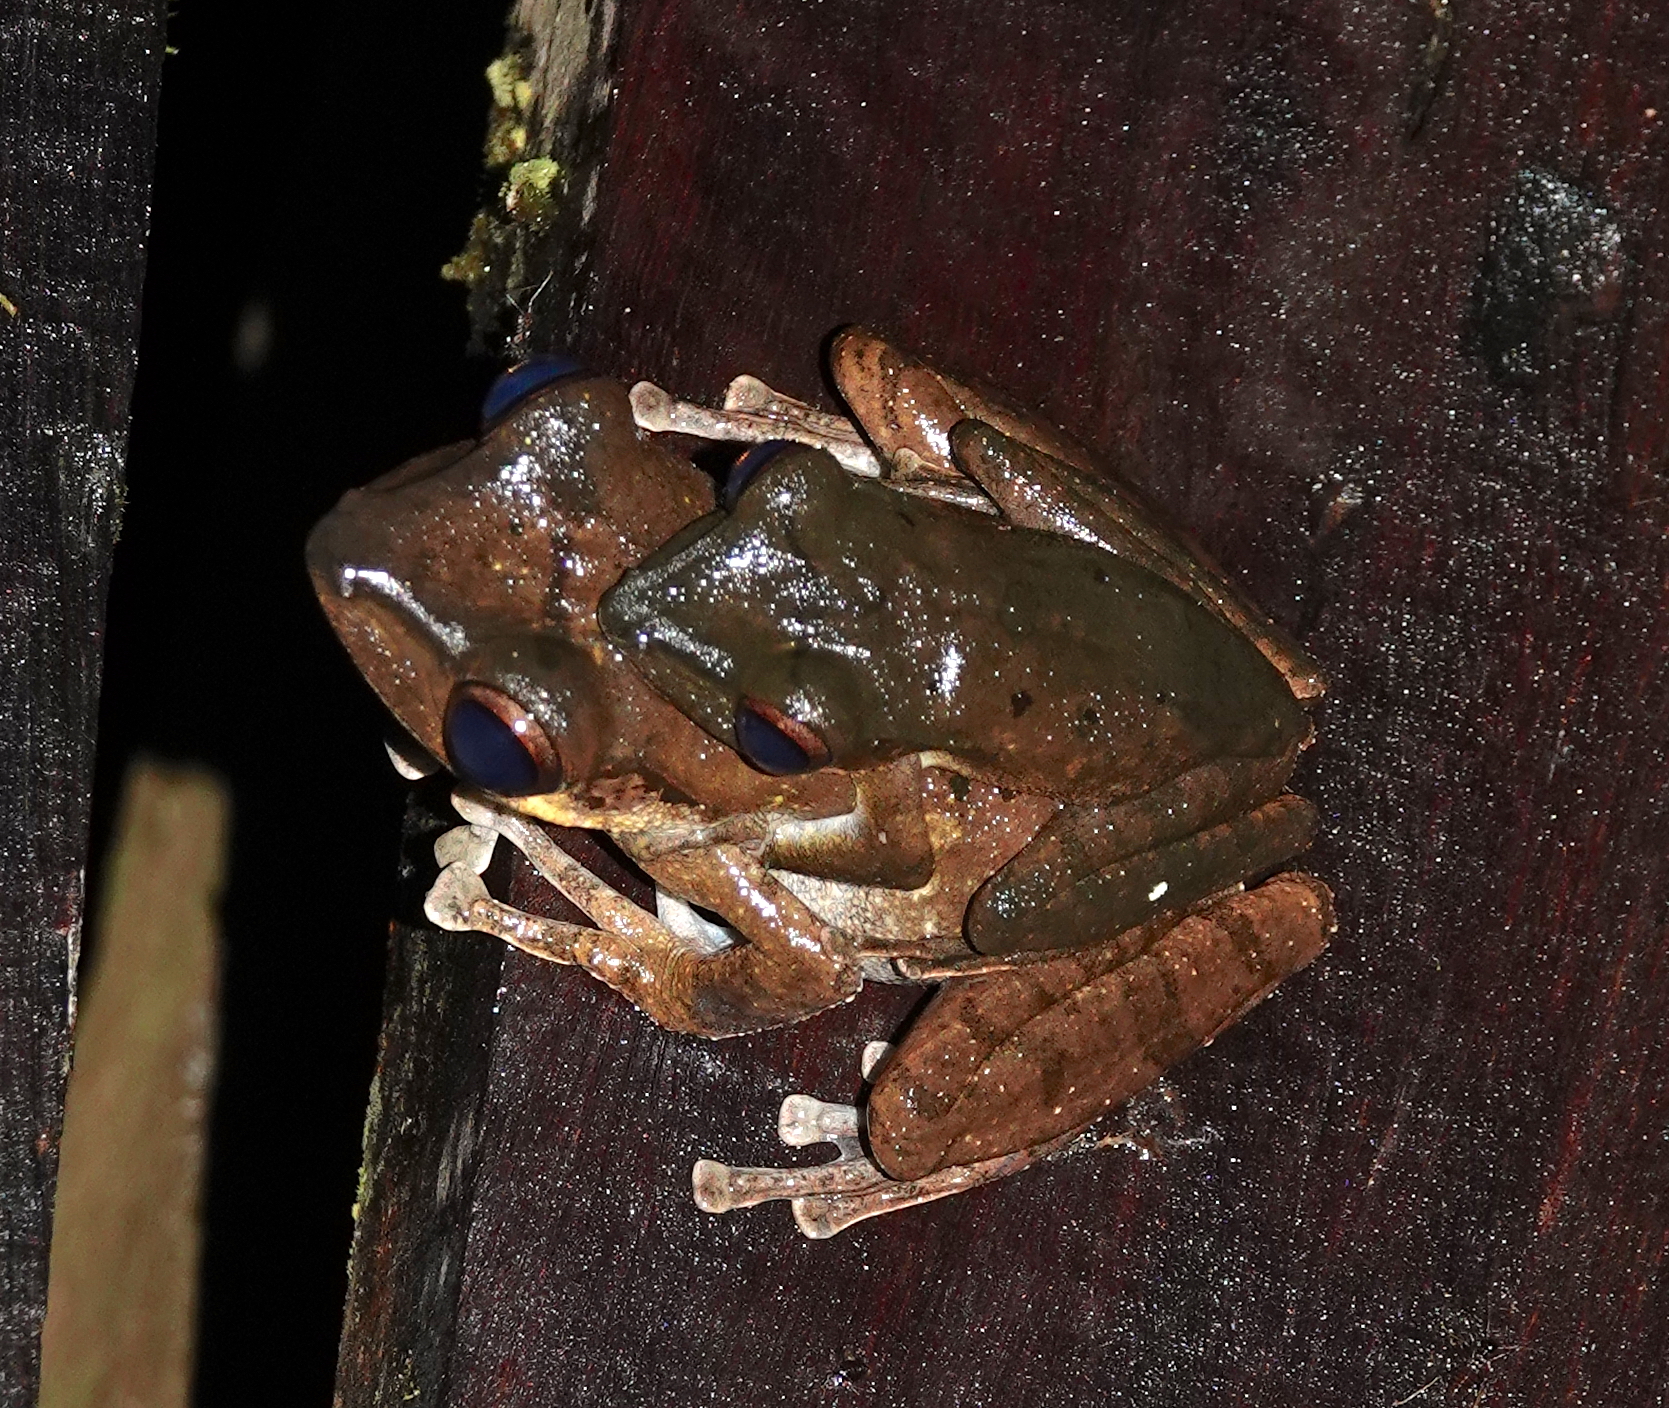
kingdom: Animalia
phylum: Chordata
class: Amphibia
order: Anura
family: Rhacophoridae
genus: Polypedates
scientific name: Polypedates macrotis
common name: Dark-eared tree frog
